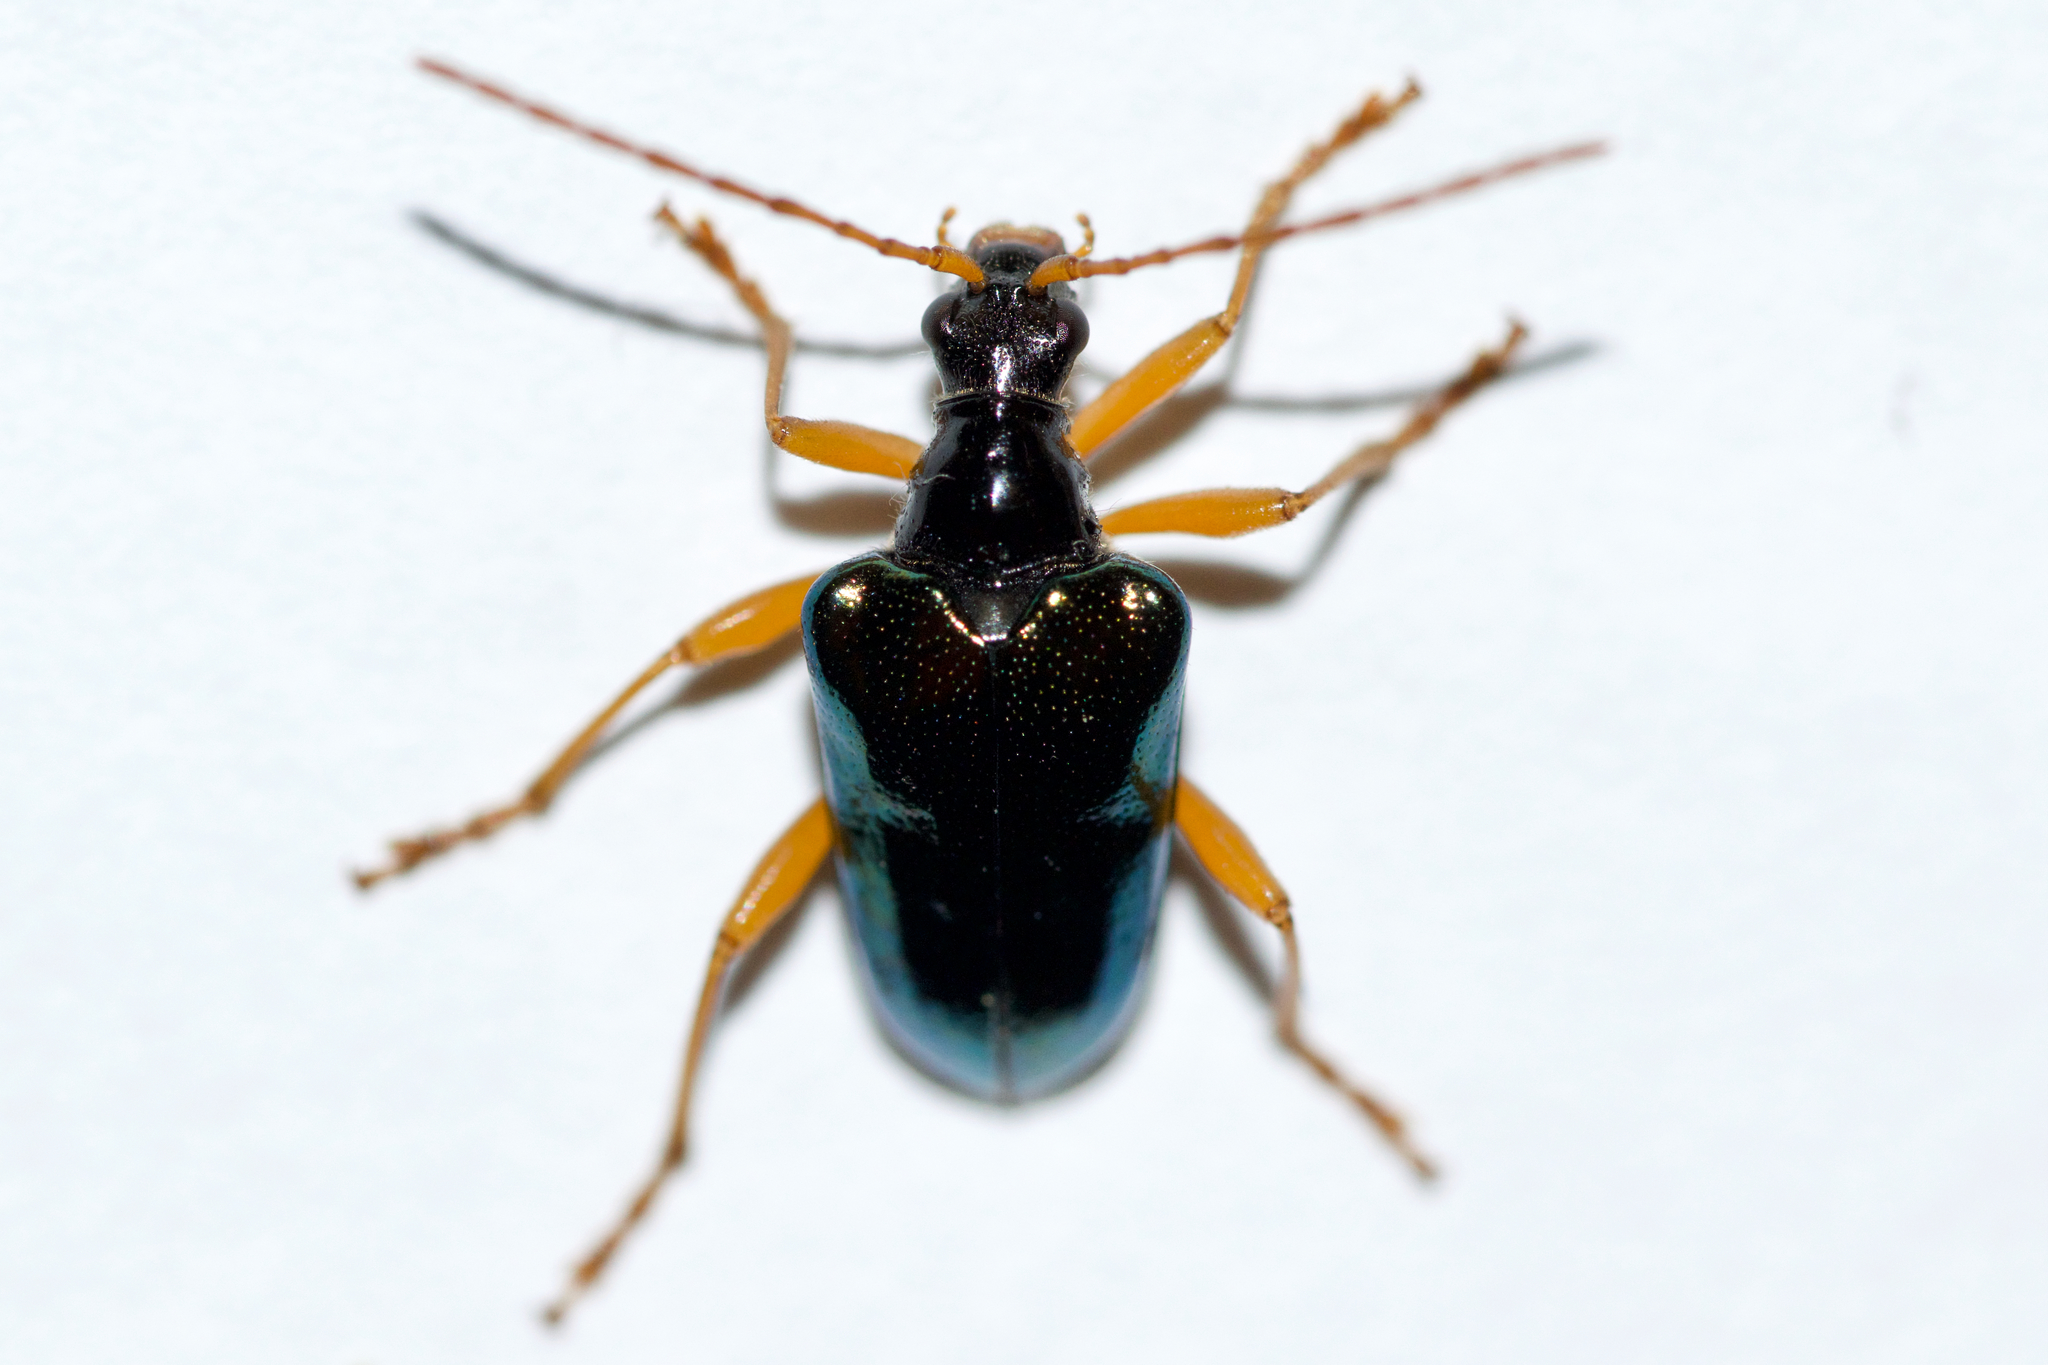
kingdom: Animalia
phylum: Arthropoda
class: Insecta
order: Coleoptera
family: Cerambycidae
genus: Gaurotes
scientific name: Gaurotes cyanipennis
